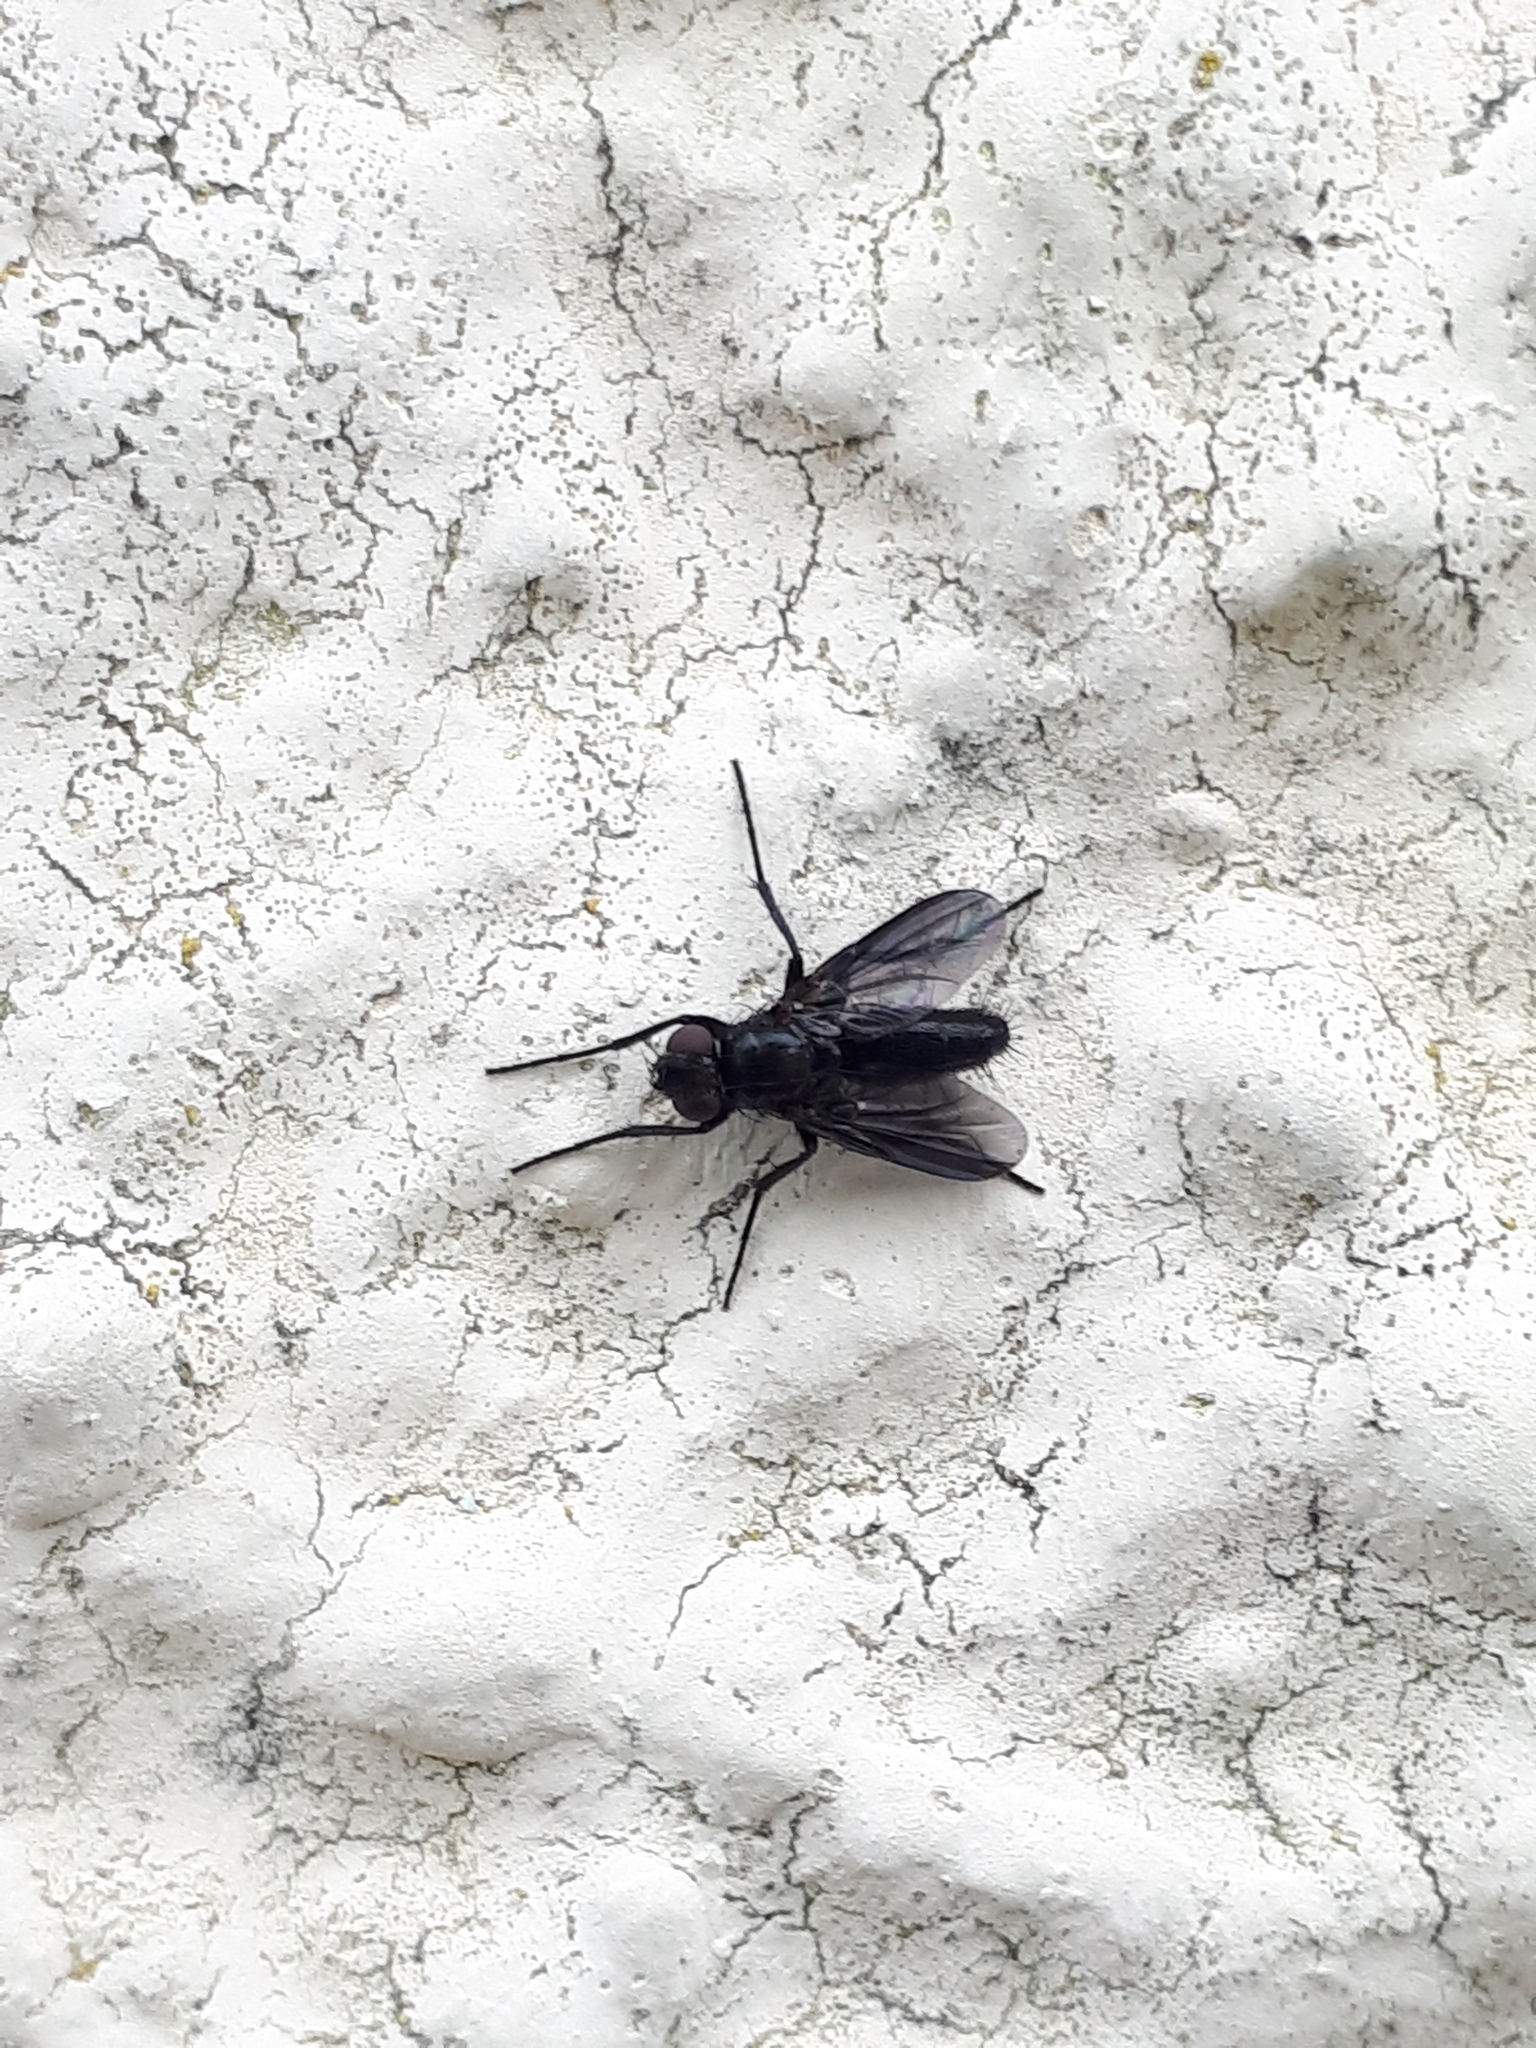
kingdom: Animalia
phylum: Arthropoda
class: Insecta
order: Diptera
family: Calliphoridae
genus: Melanophora
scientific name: Melanophora roralis
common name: Smoky-winged woodlouse-fly
